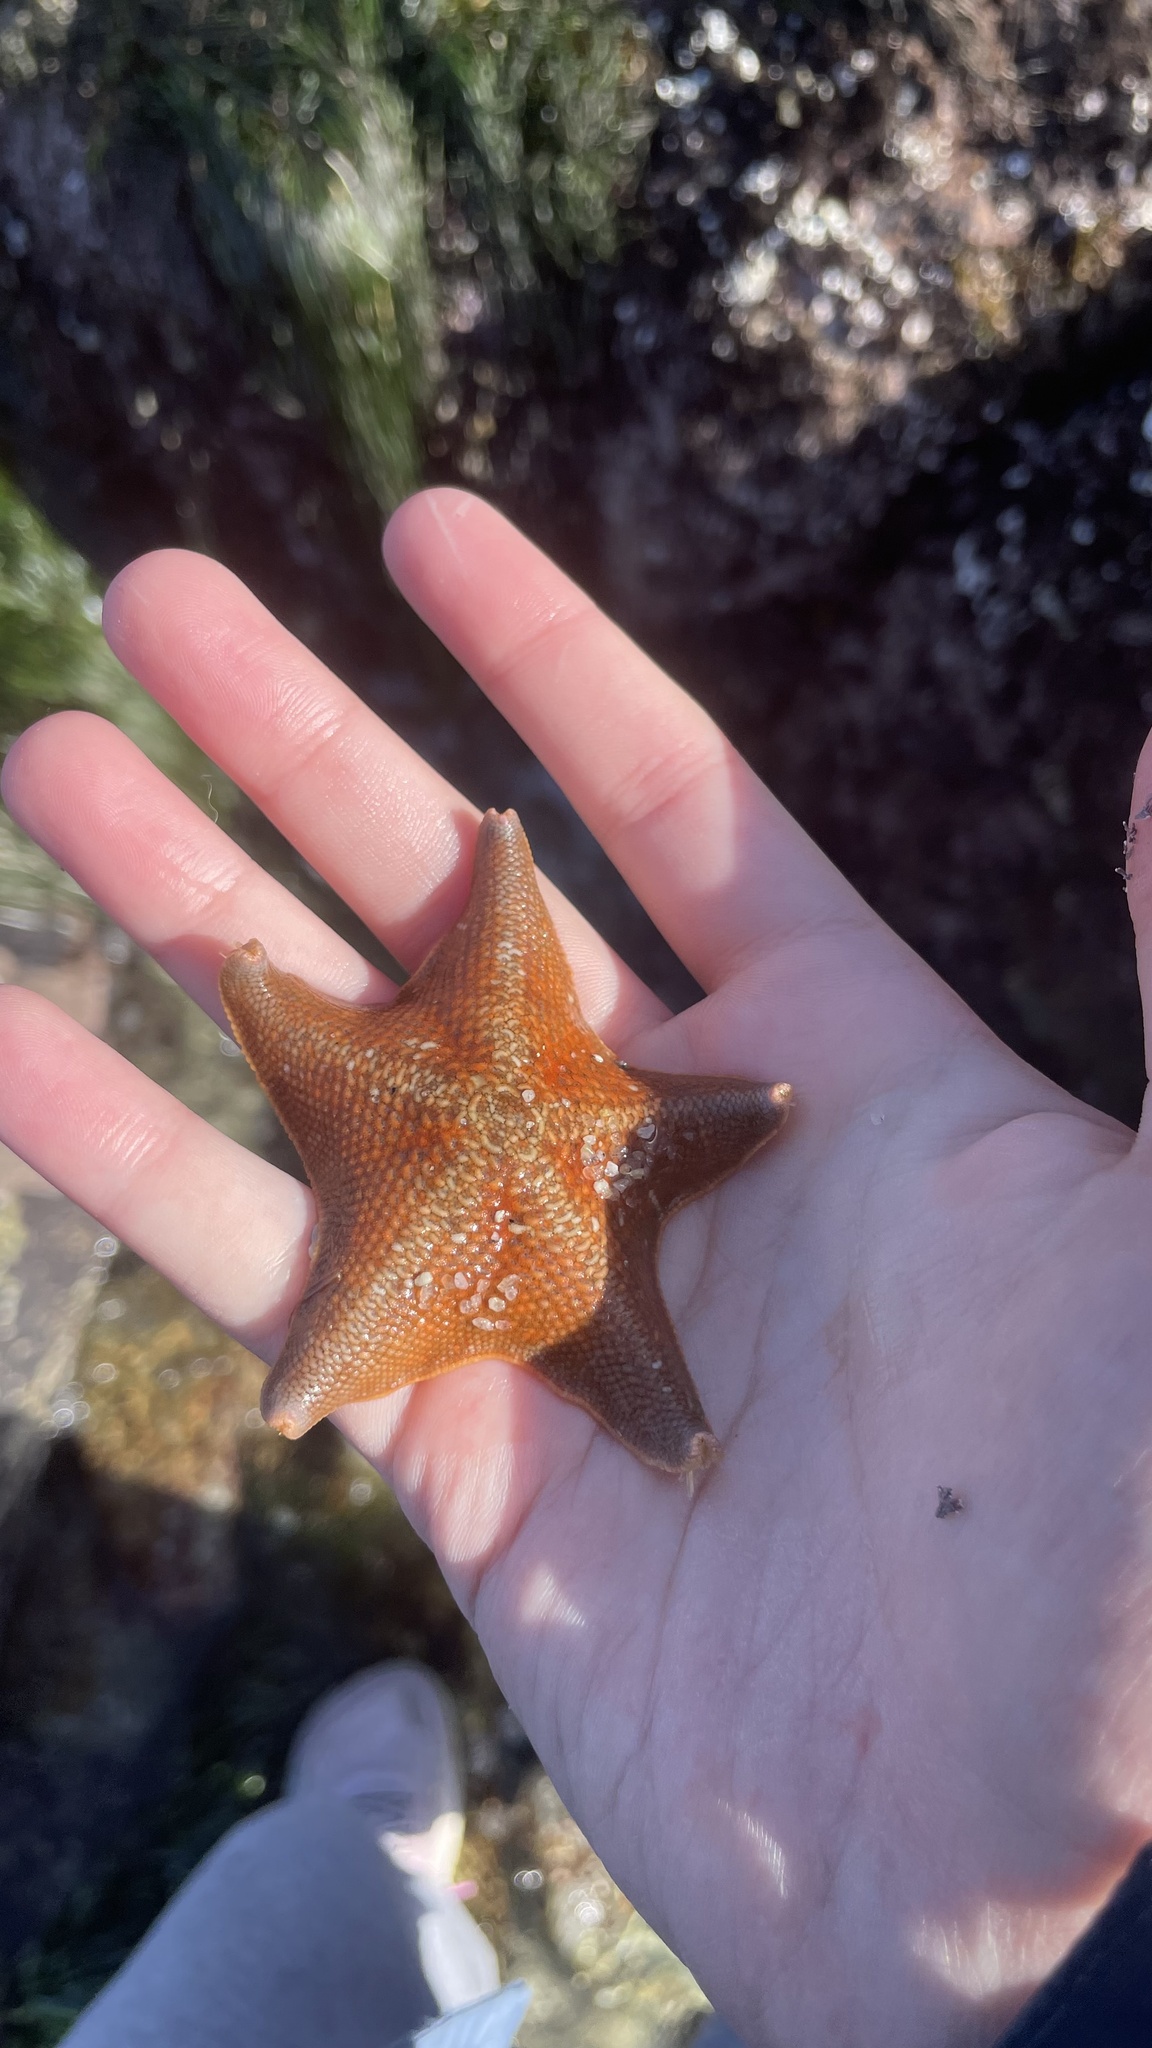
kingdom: Animalia
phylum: Echinodermata
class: Asteroidea
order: Valvatida
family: Asterinidae
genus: Patiria
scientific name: Patiria miniata
